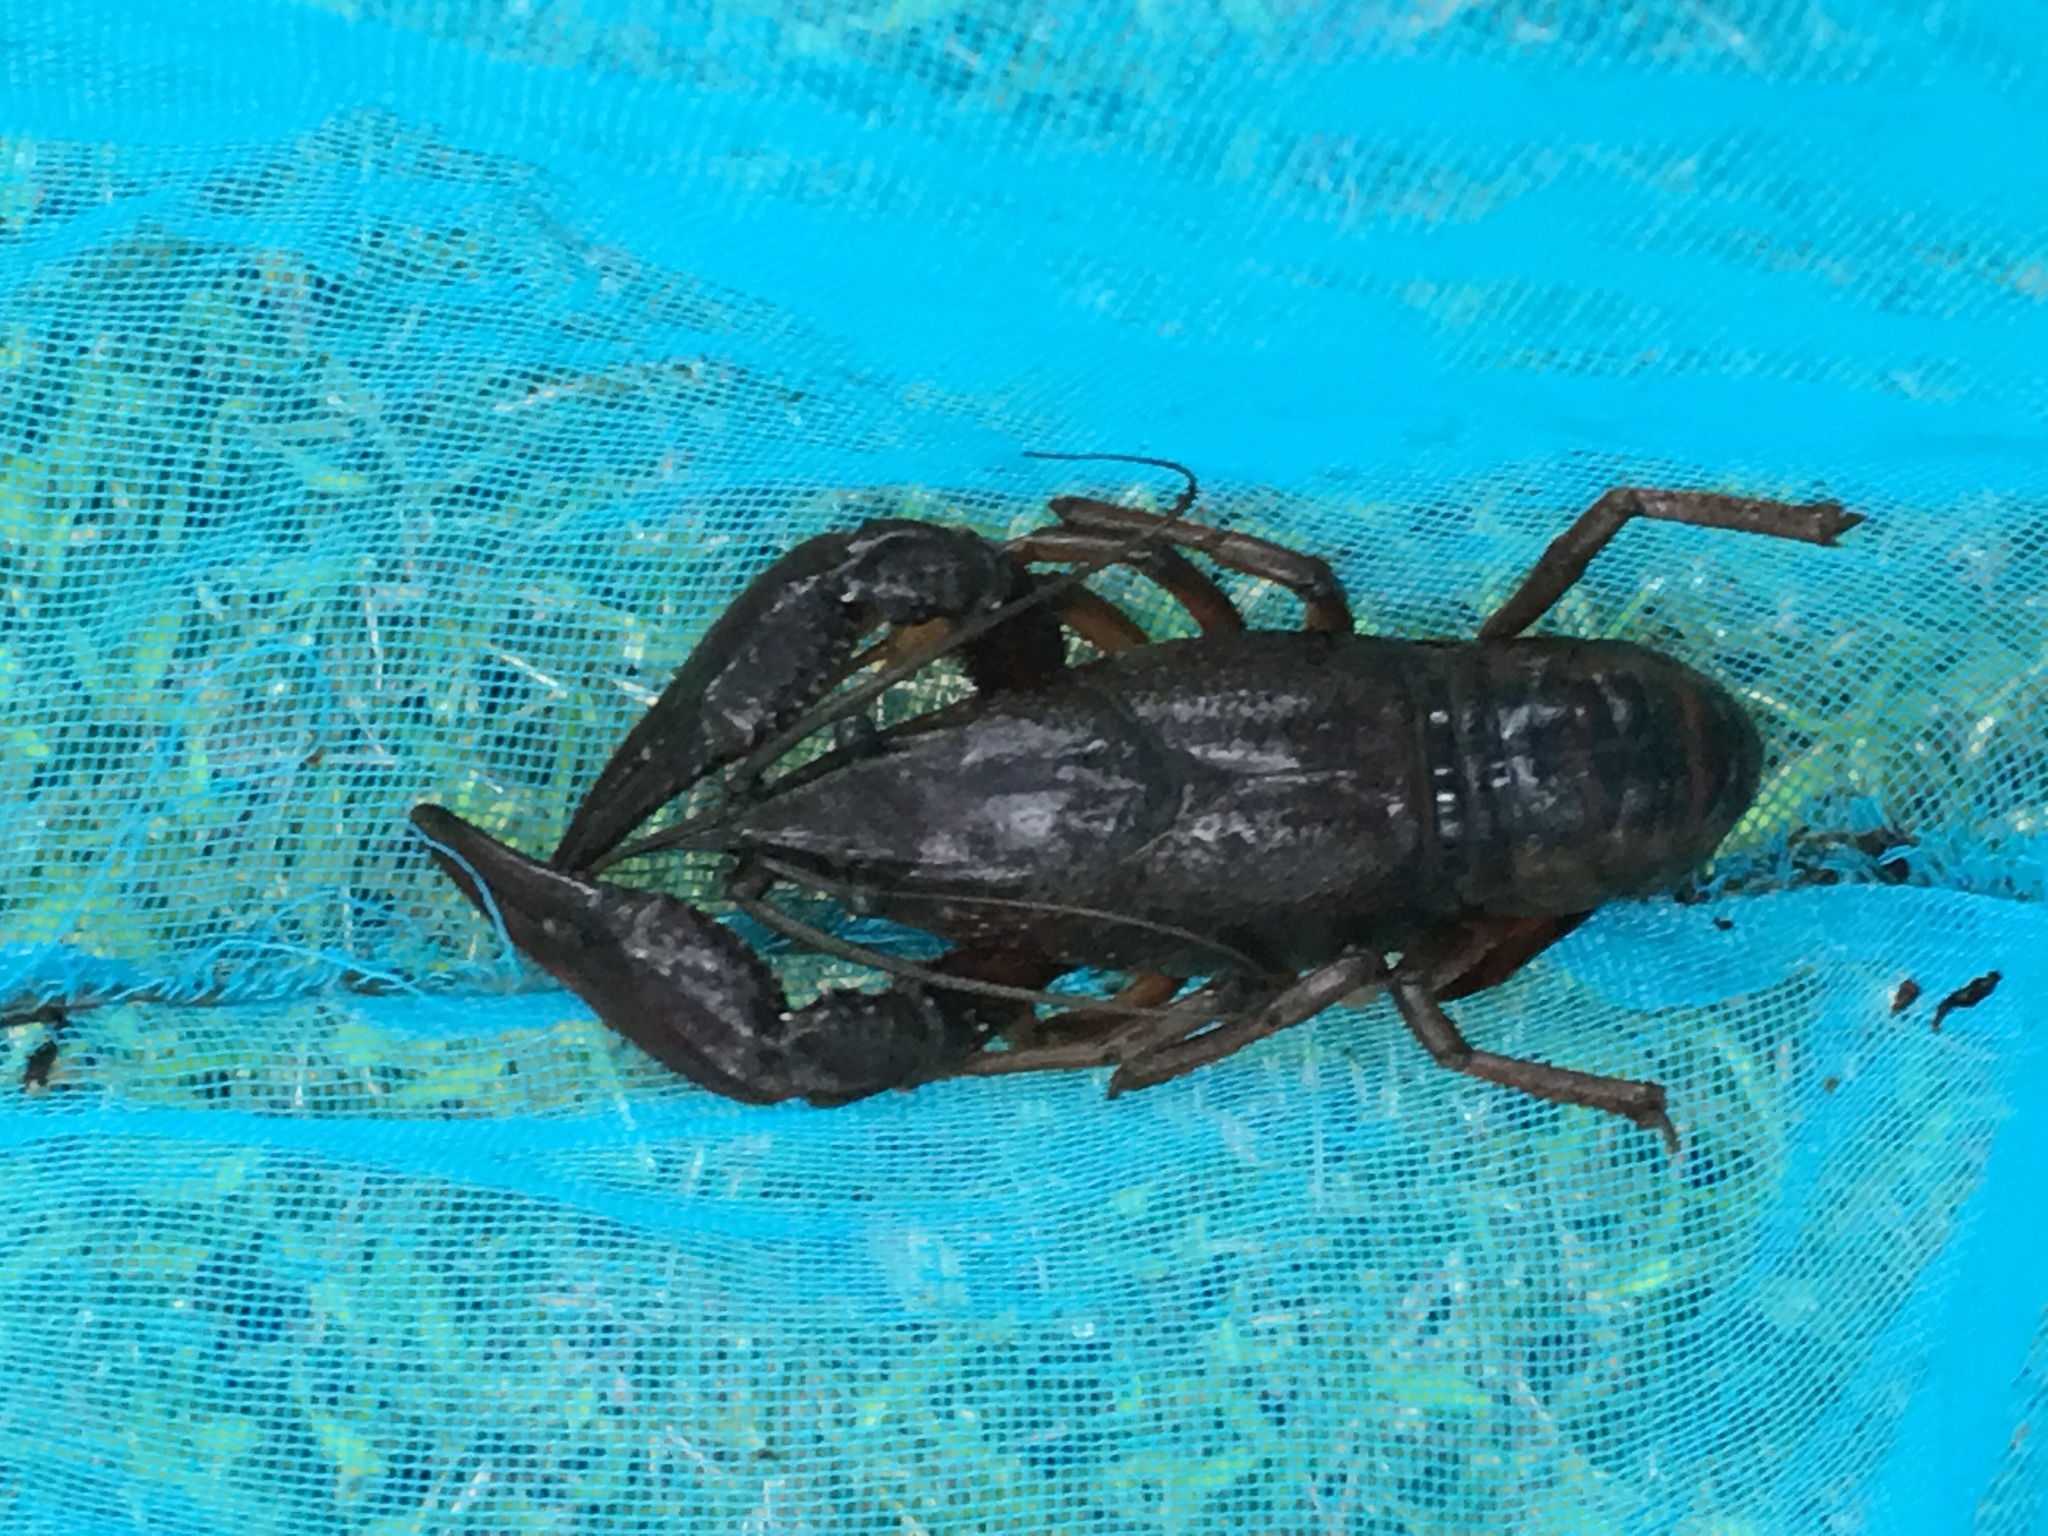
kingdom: Animalia
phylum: Arthropoda
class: Malacostraca
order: Decapoda
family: Cambaridae
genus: Procambarus
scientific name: Procambarus clarkii
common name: Red swamp crayfish
